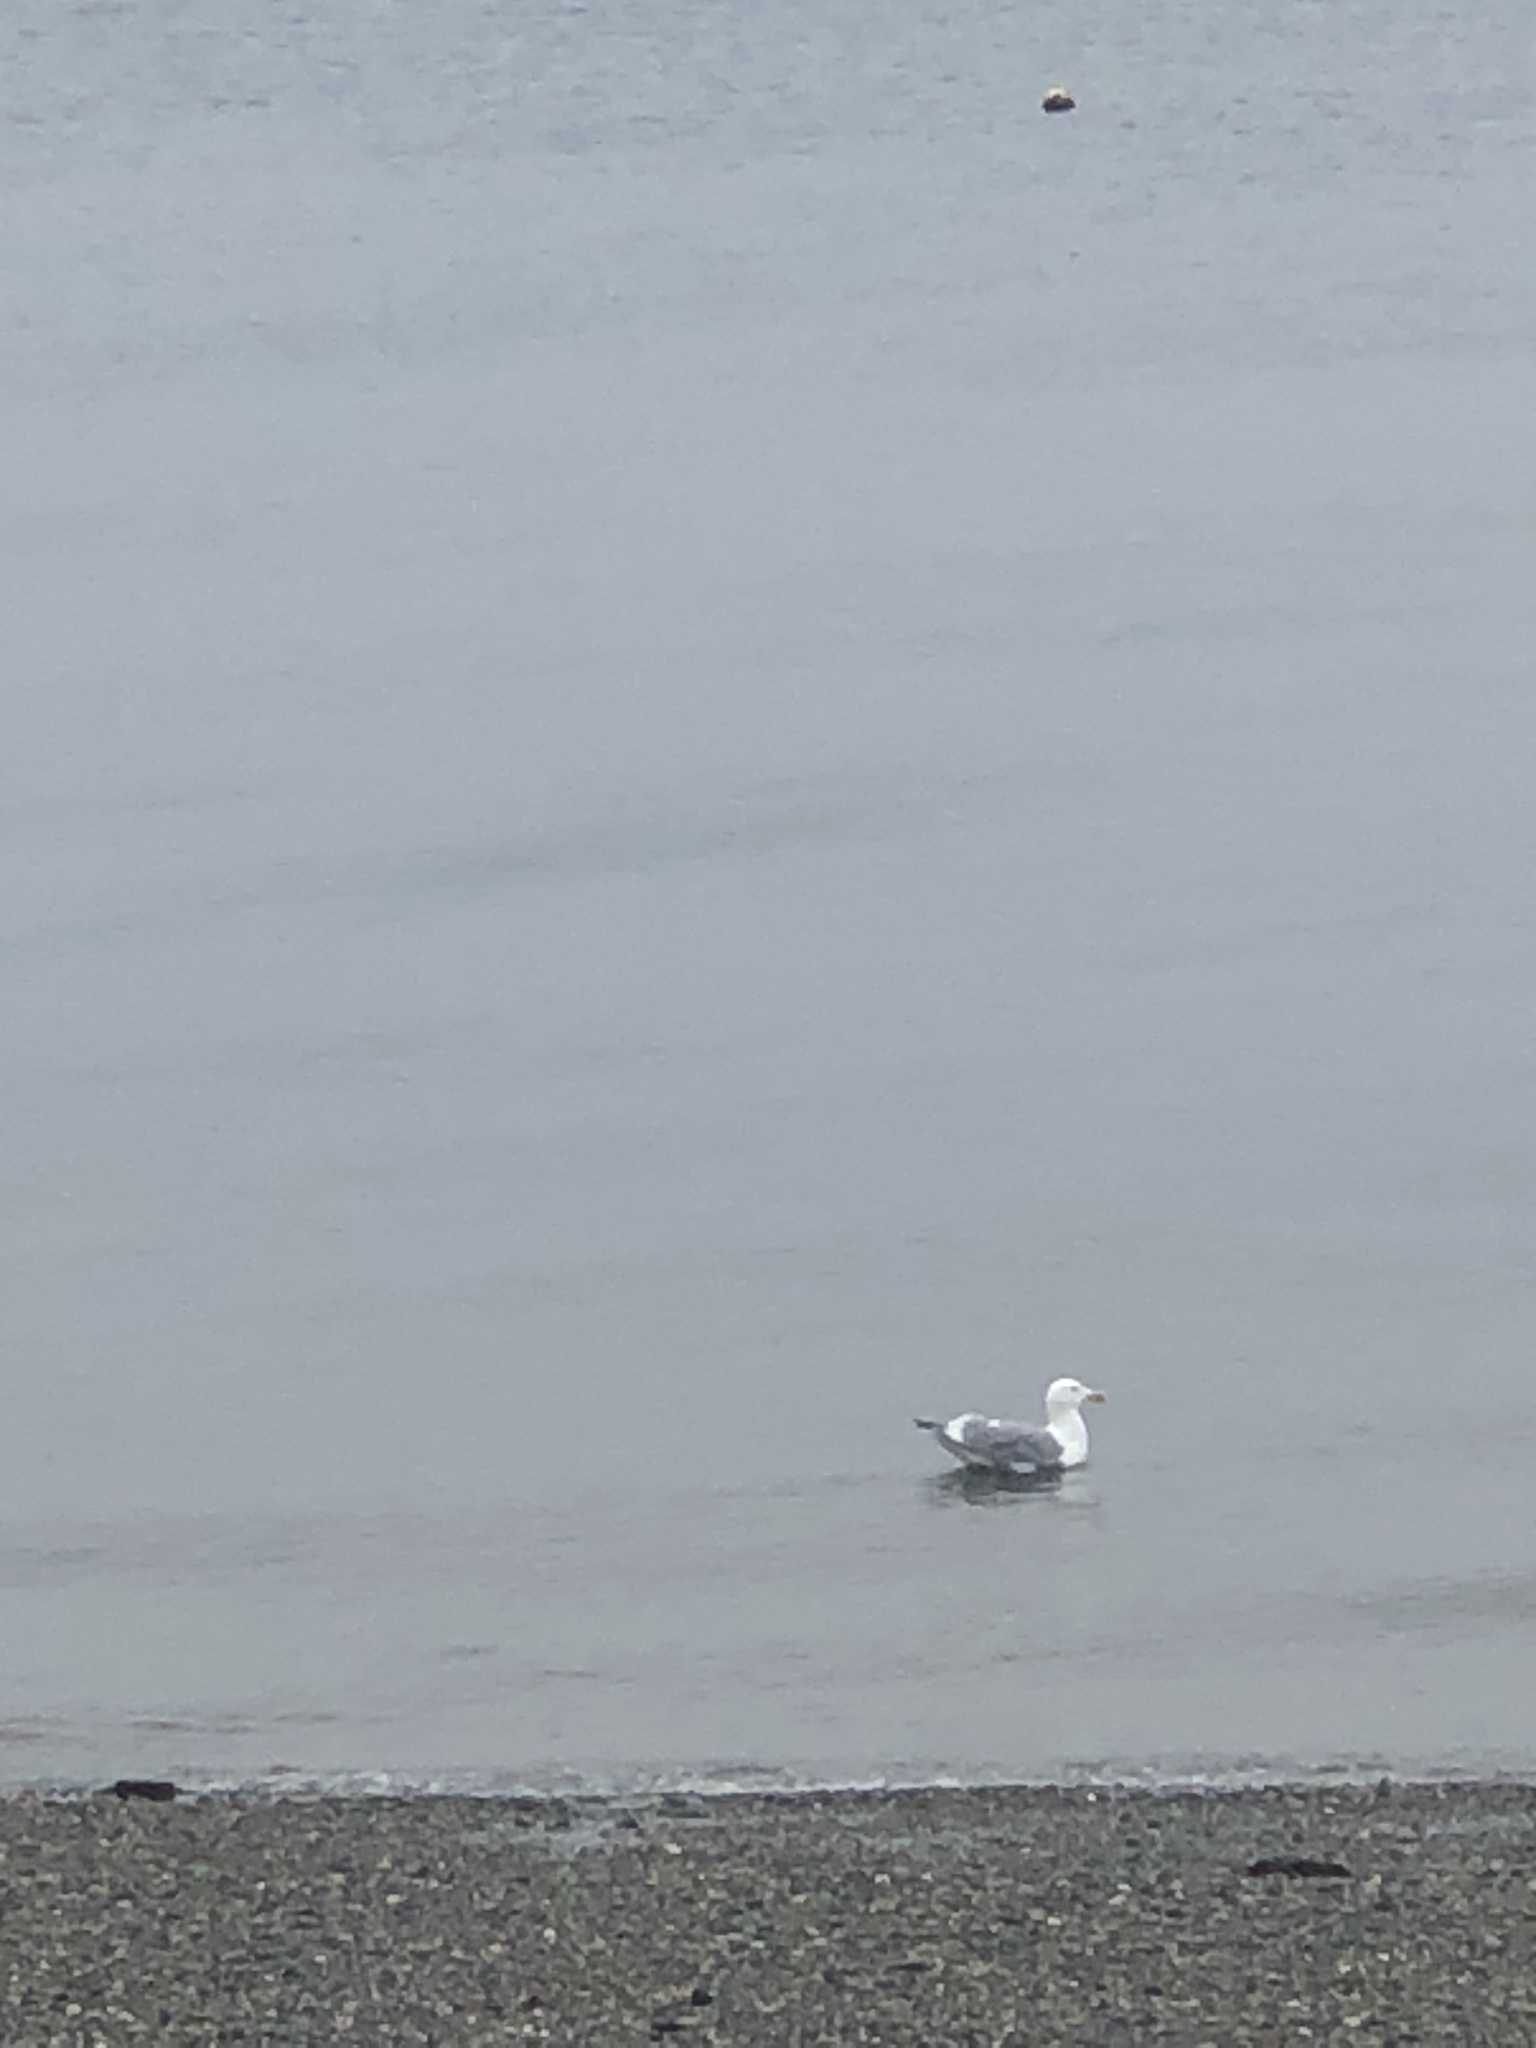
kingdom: Animalia
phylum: Chordata
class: Aves
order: Charadriiformes
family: Laridae
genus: Larus
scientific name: Larus
